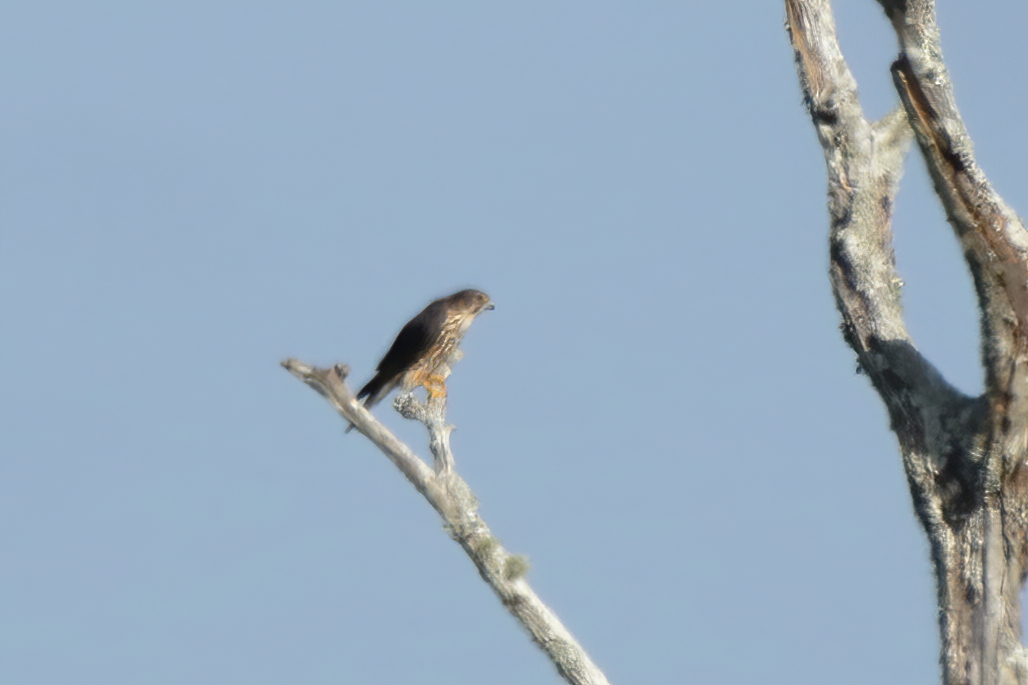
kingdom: Animalia
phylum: Chordata
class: Aves
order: Falconiformes
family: Falconidae
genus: Falco
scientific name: Falco columbarius
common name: Merlin
